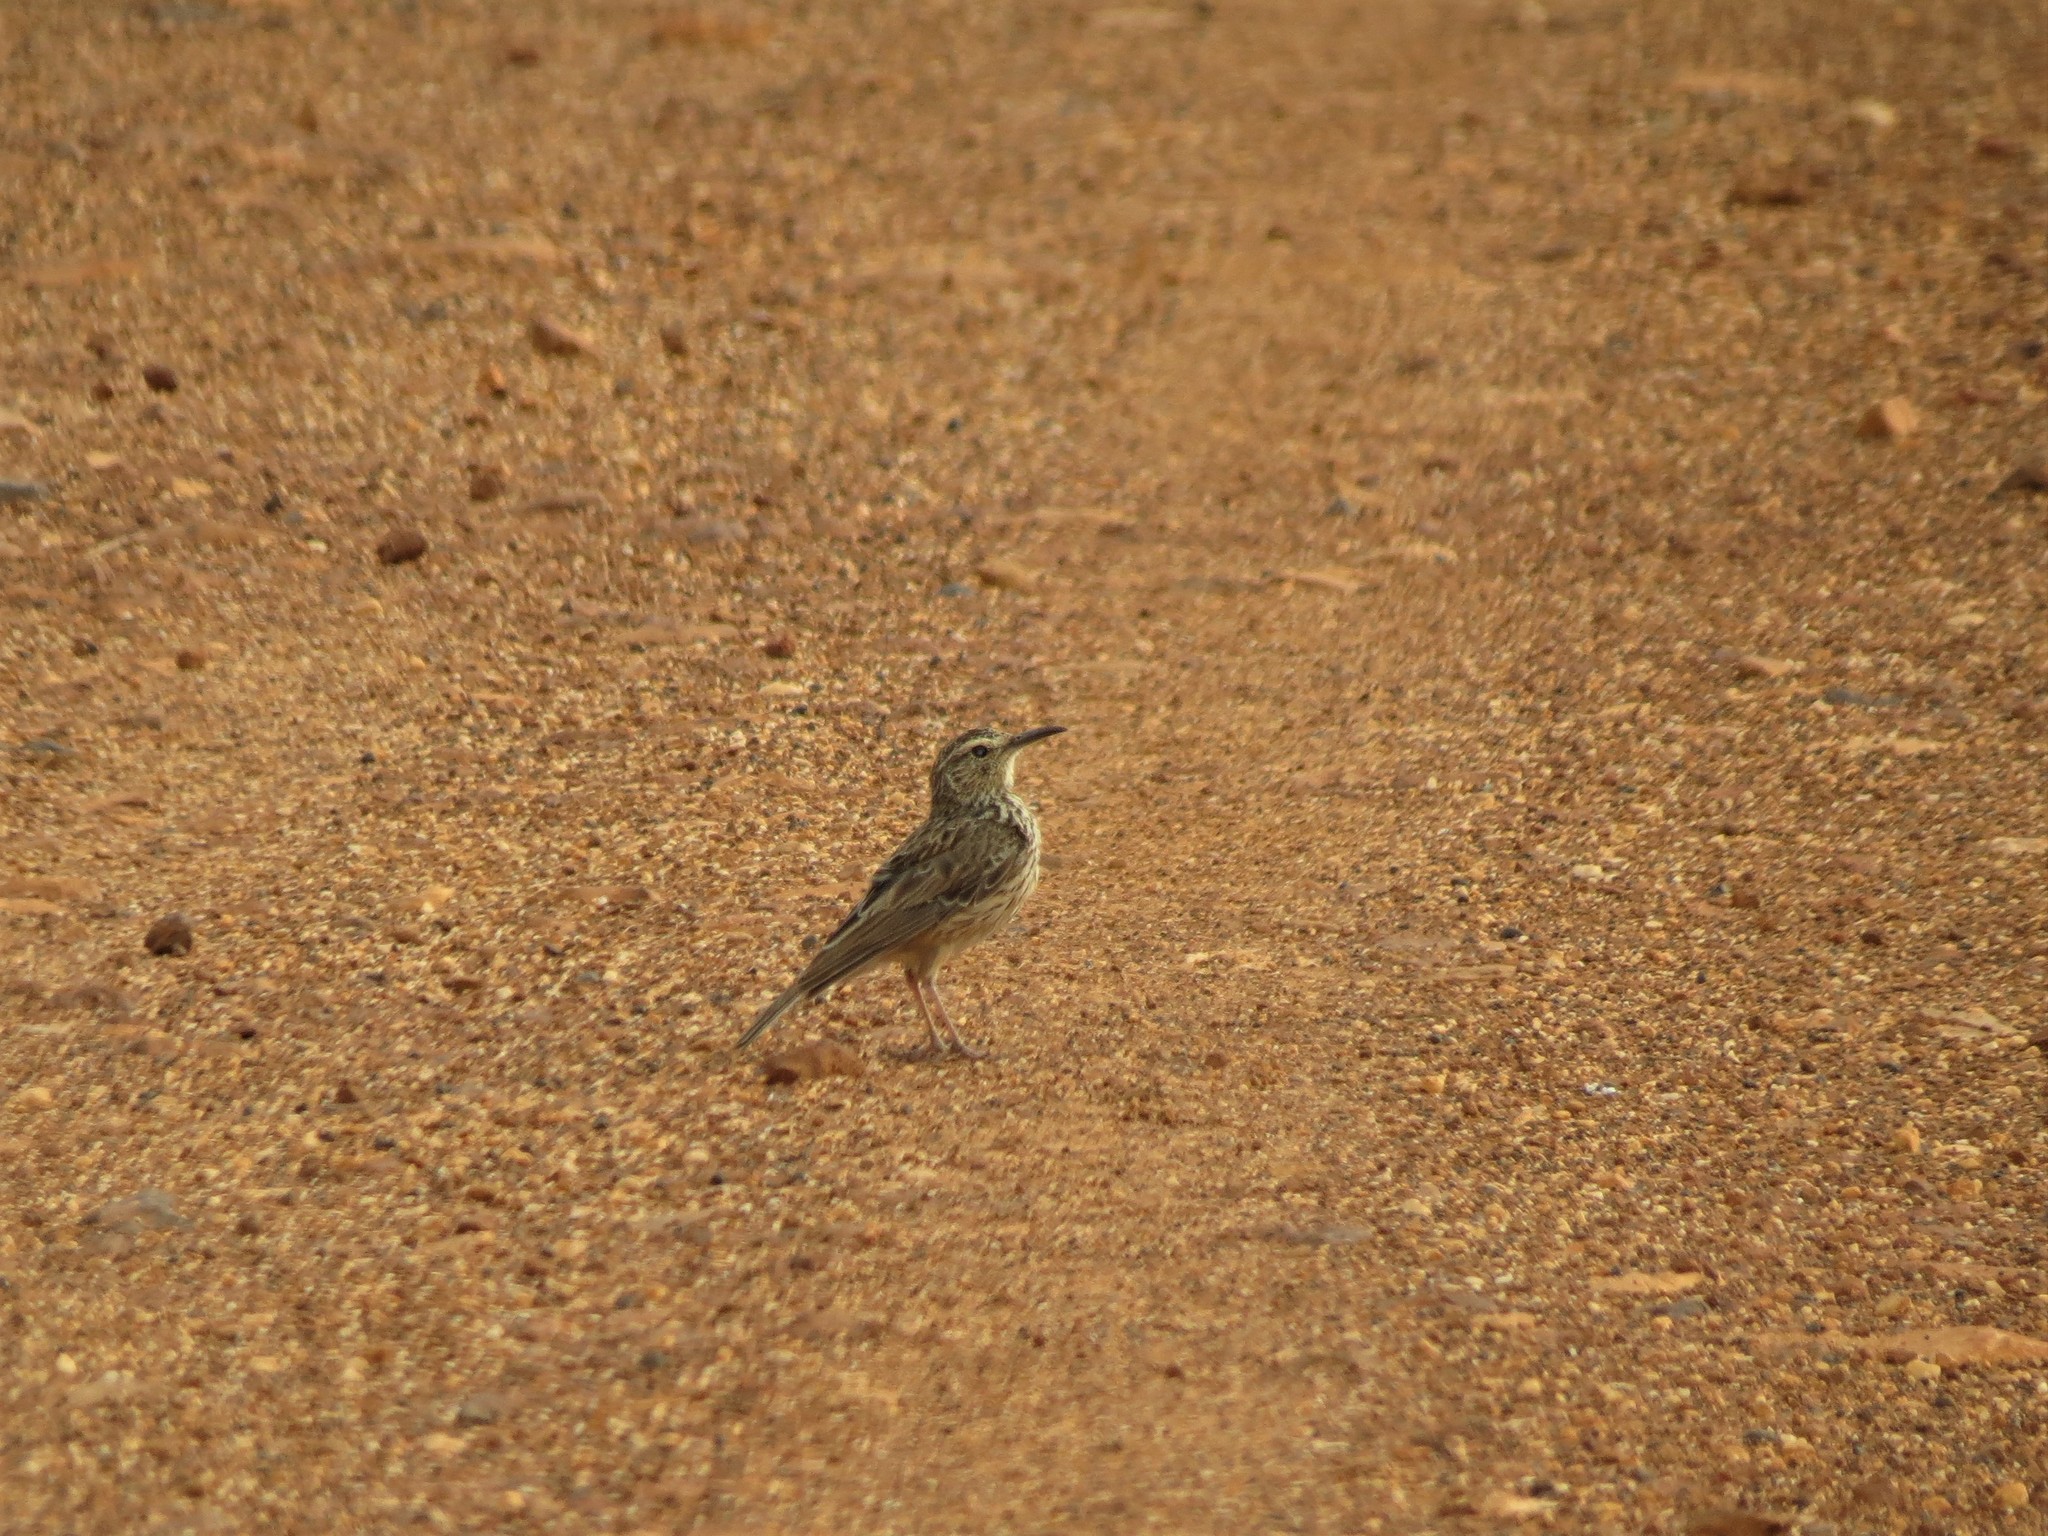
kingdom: Animalia
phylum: Chordata
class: Aves
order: Passeriformes
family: Alaudidae
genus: Certhilauda
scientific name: Certhilauda curvirostris
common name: Cape long-billed lark
